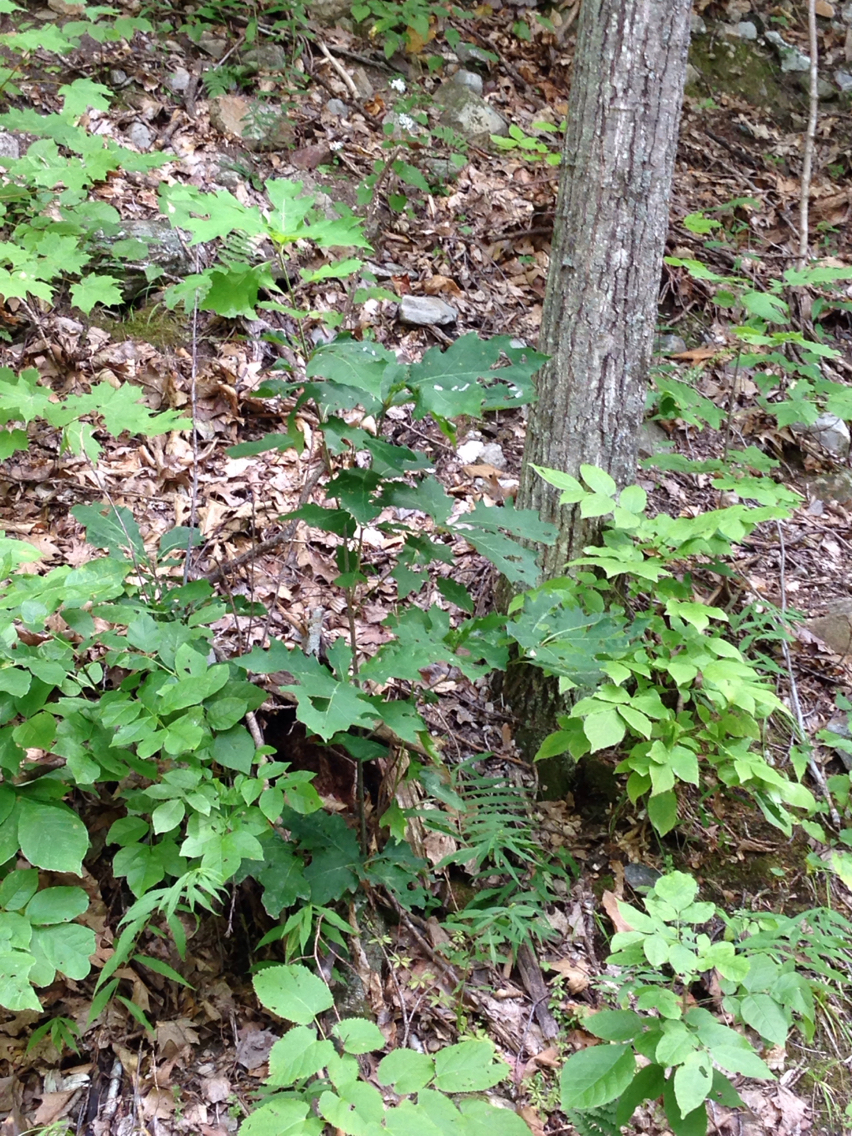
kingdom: Plantae
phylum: Tracheophyta
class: Magnoliopsida
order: Fagales
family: Fagaceae
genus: Quercus
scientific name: Quercus rubra
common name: Red oak
